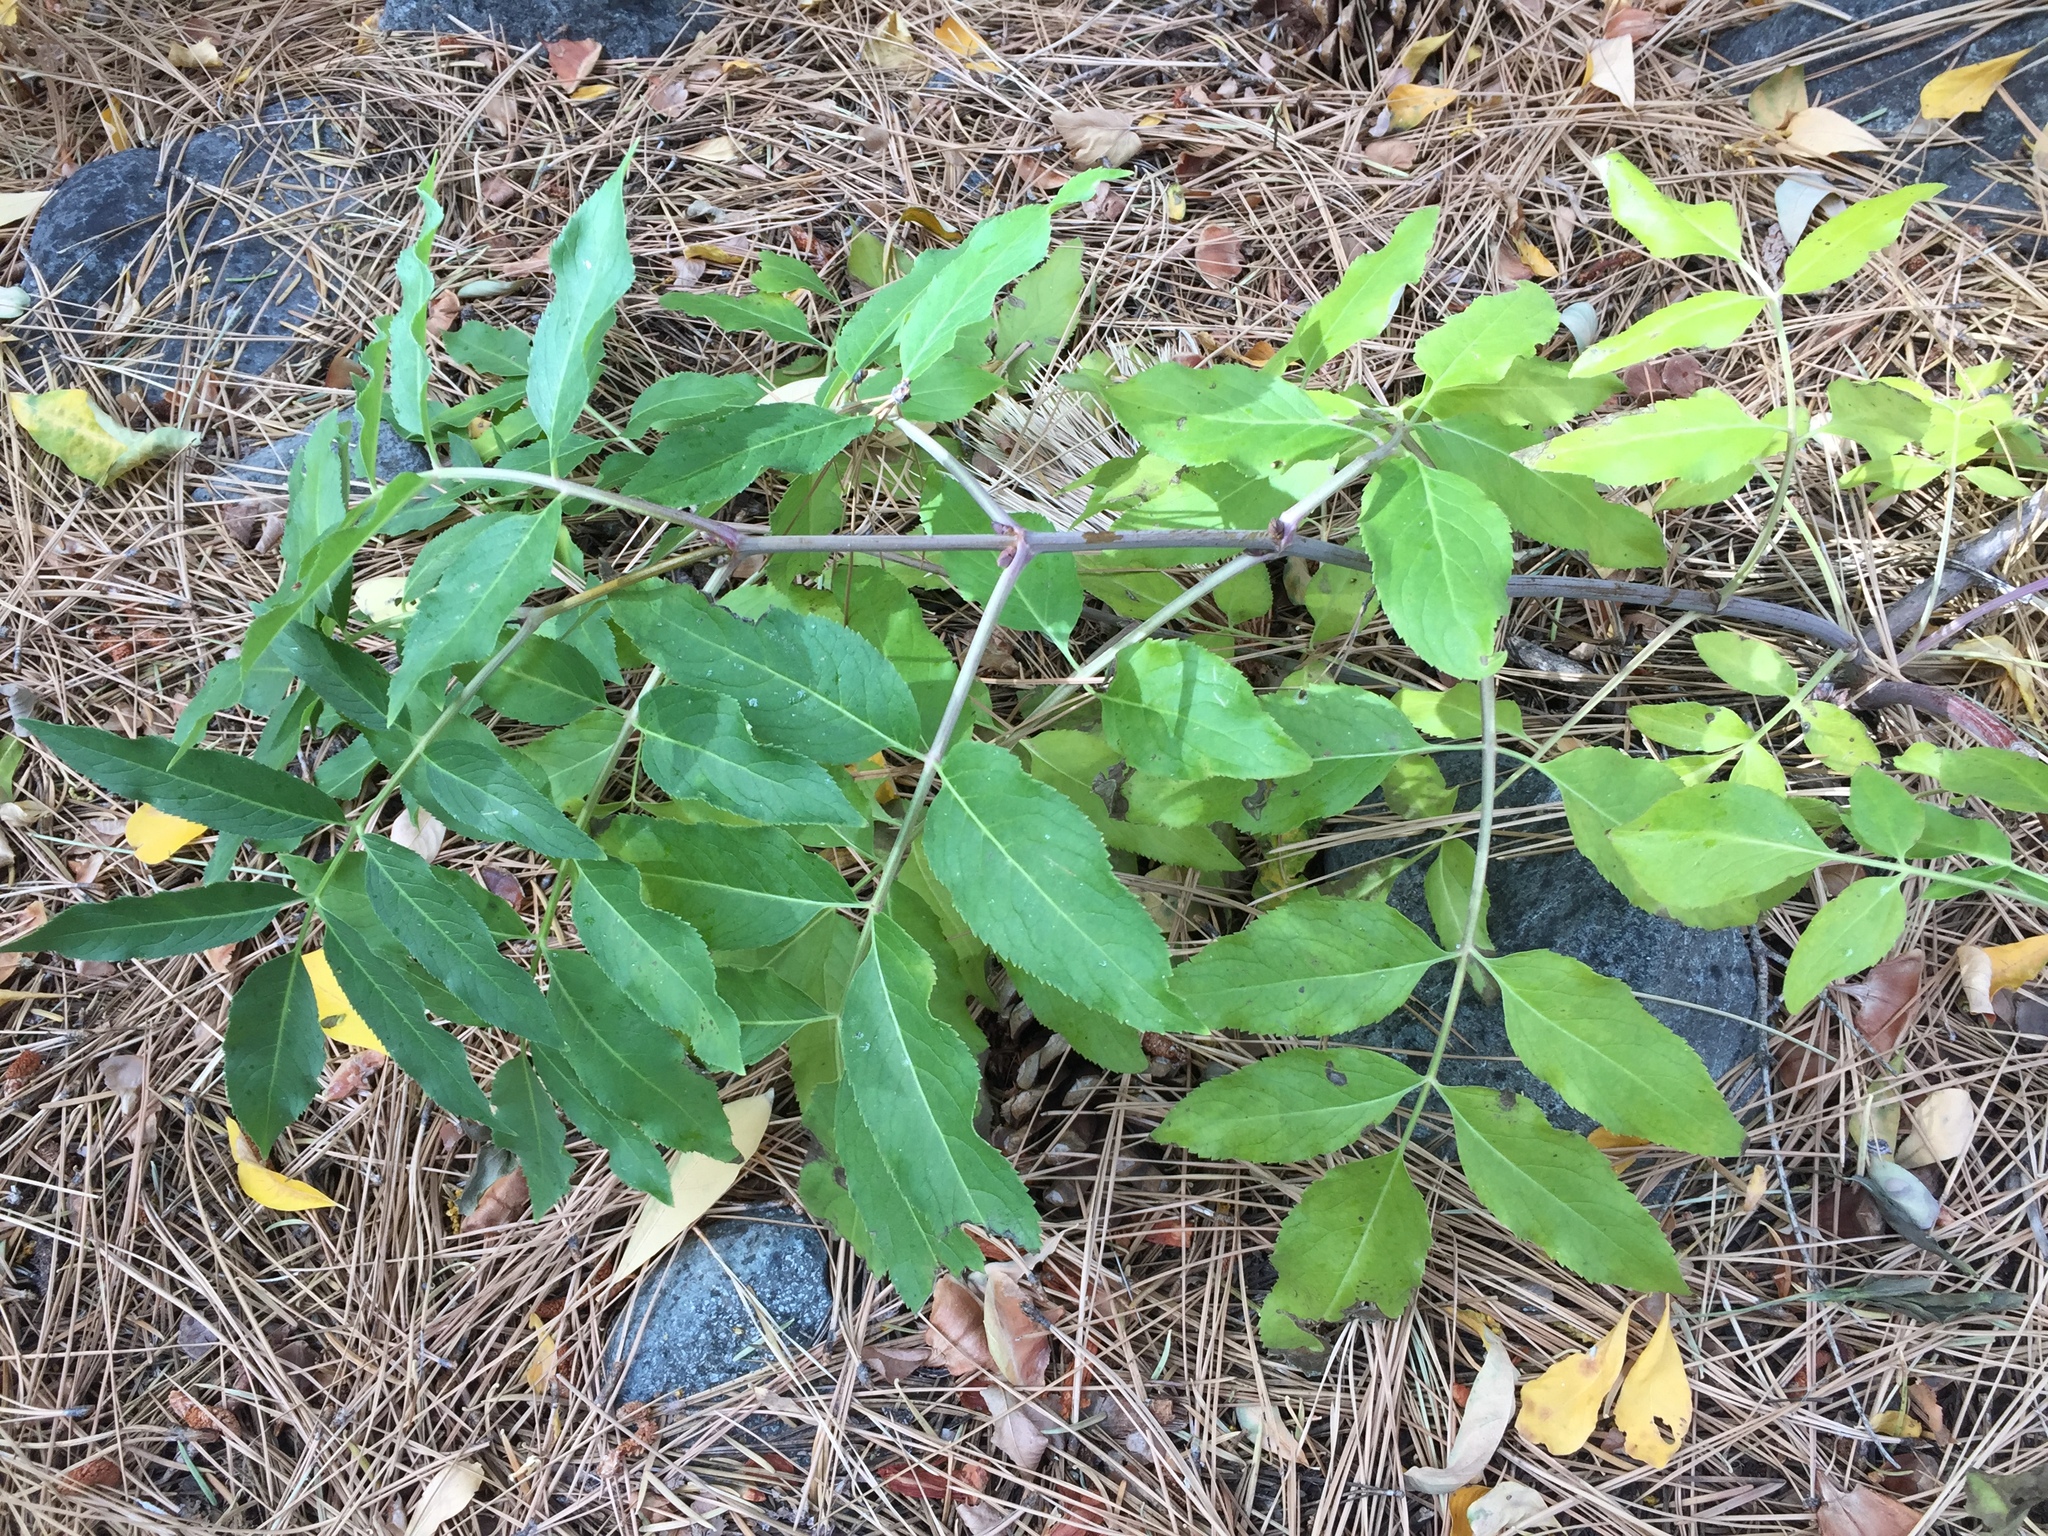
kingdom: Plantae
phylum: Tracheophyta
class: Magnoliopsida
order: Dipsacales
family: Viburnaceae
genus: Sambucus
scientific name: Sambucus cerulea
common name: Blue elder
